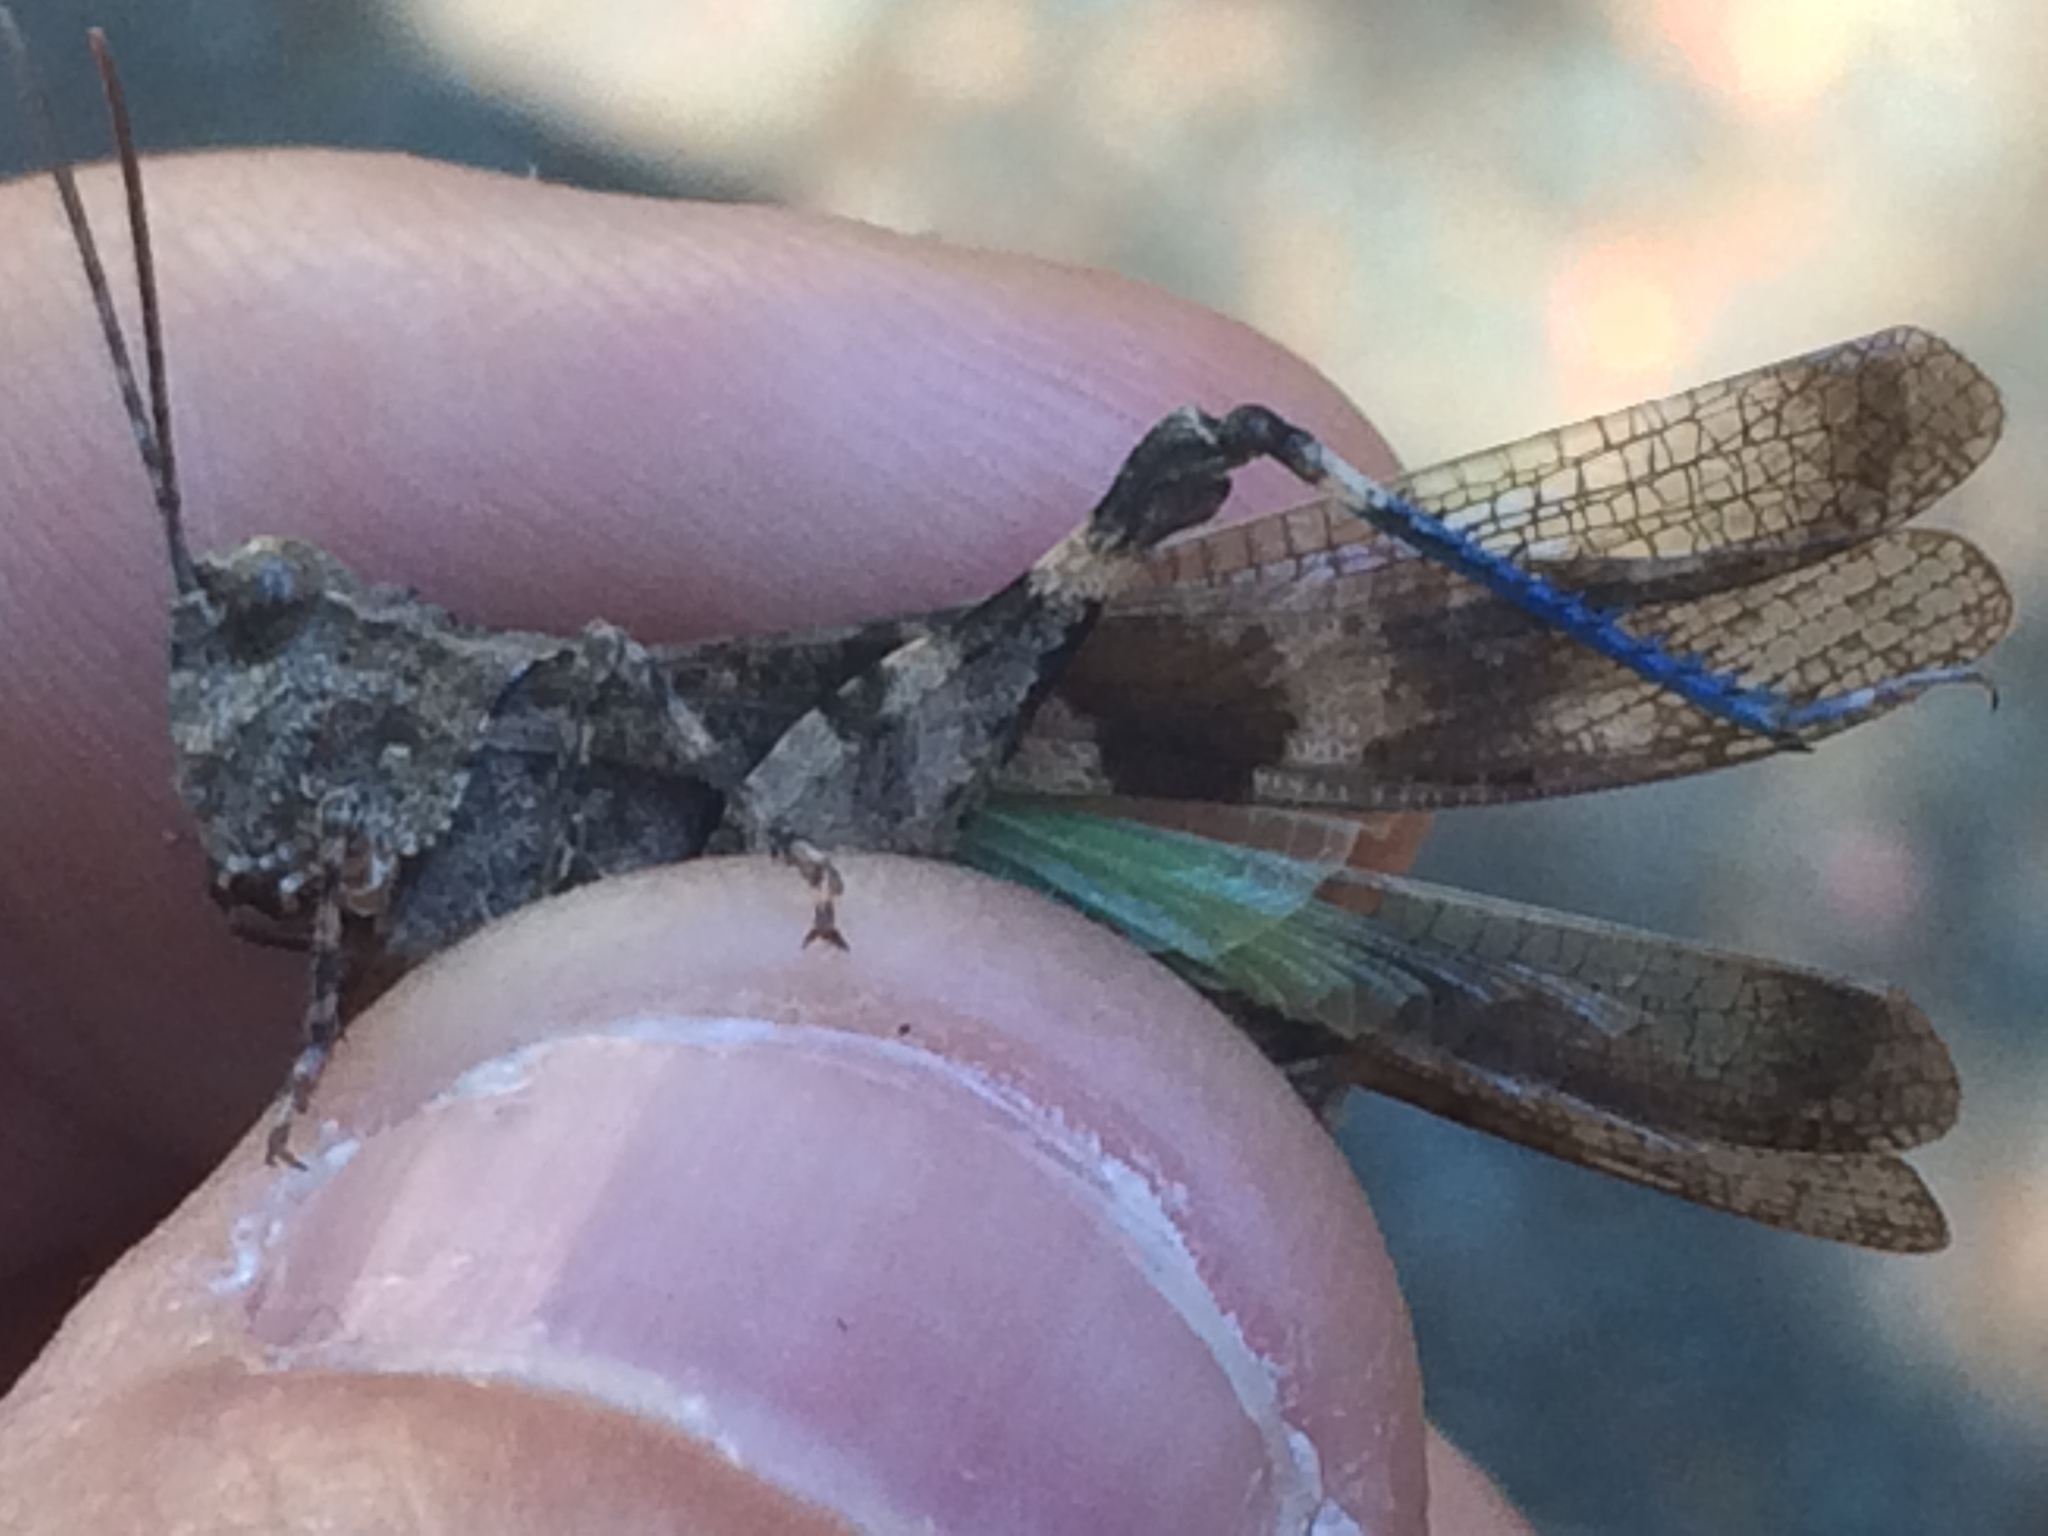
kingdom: Animalia
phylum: Arthropoda
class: Insecta
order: Orthoptera
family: Acrididae
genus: Trimerotropis
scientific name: Trimerotropis fontana
